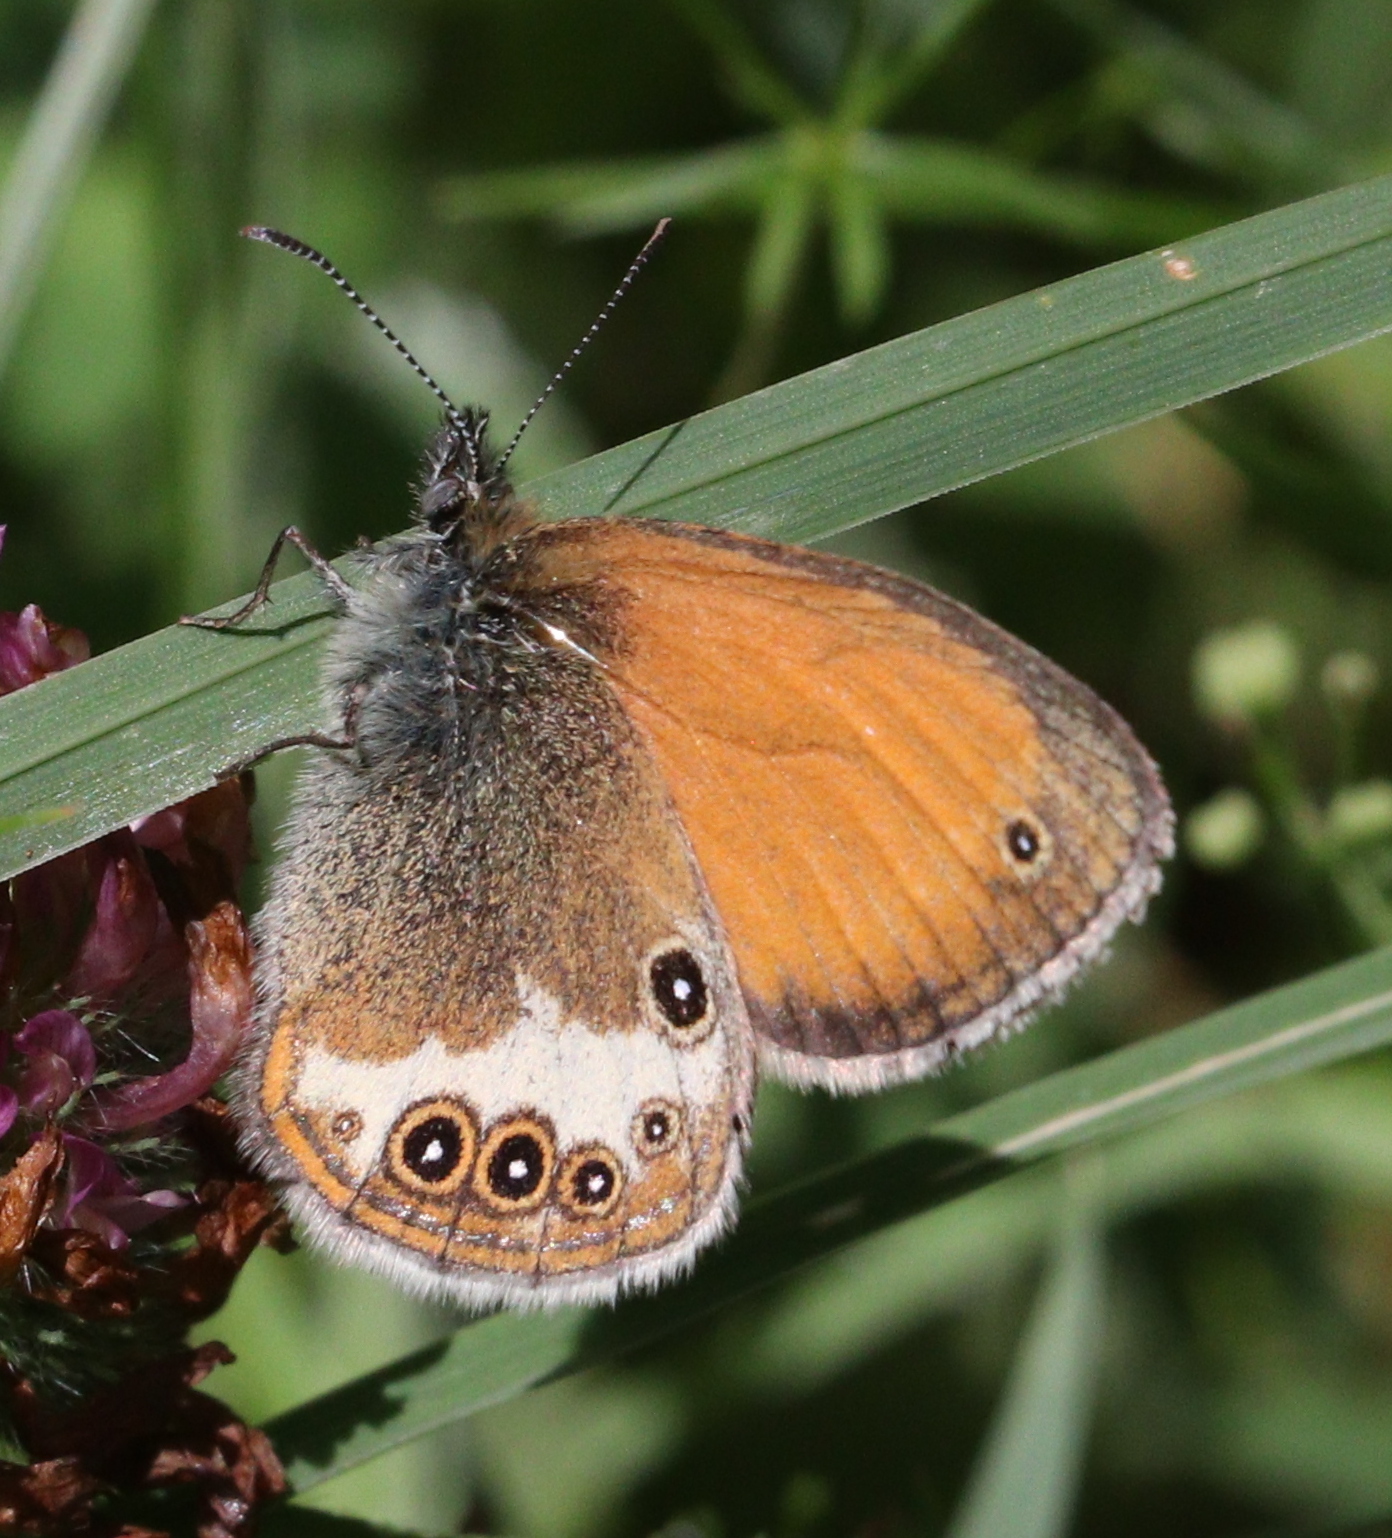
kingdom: Animalia
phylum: Arthropoda
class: Insecta
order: Lepidoptera
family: Nymphalidae
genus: Coenonympha
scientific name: Coenonympha arcania
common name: Pearly heath
